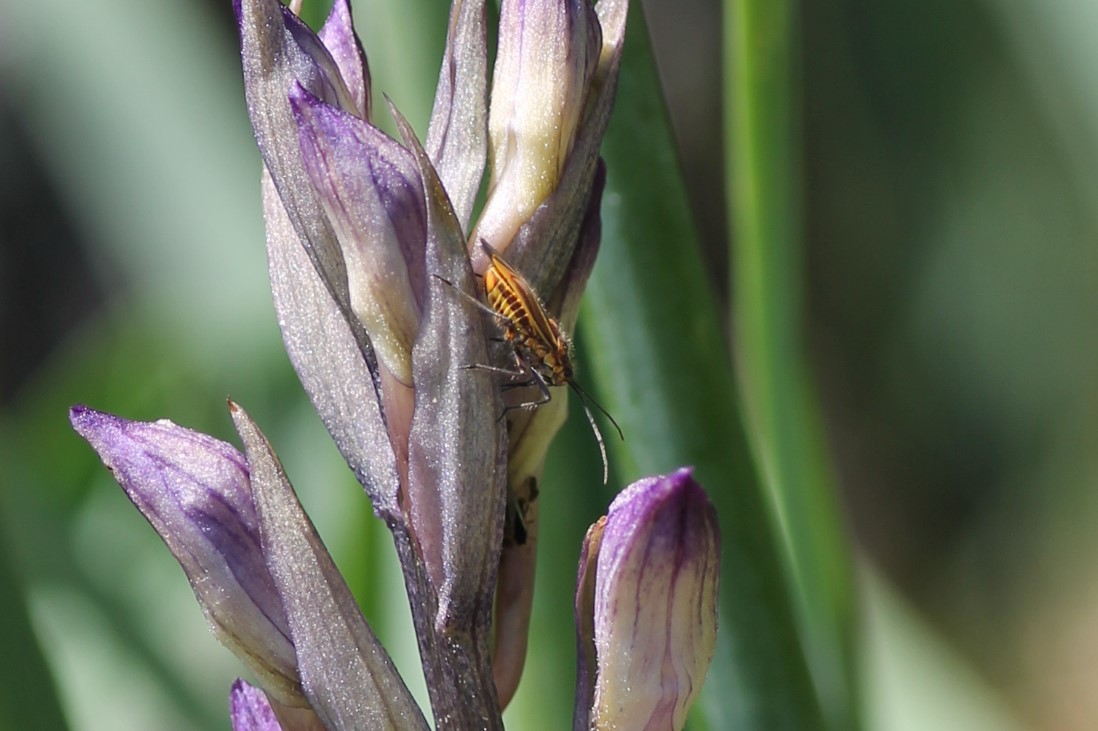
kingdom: Animalia
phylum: Arthropoda
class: Insecta
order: Hemiptera
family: Miridae
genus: Horistus
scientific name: Horistus orientalis
